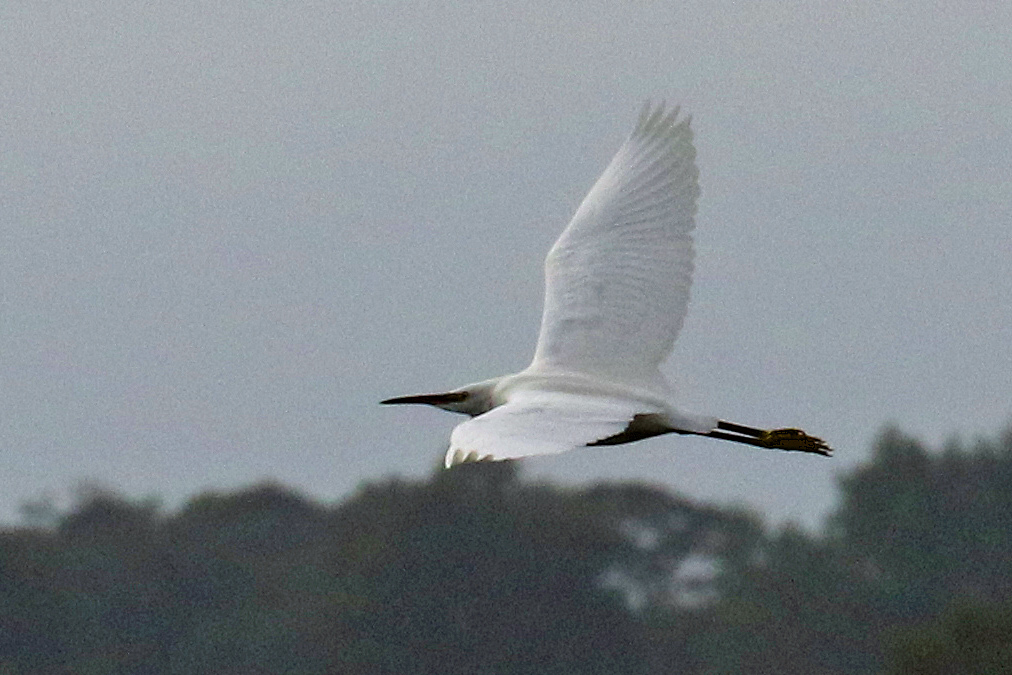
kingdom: Animalia
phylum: Chordata
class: Aves
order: Pelecaniformes
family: Ardeidae
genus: Egretta
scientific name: Egretta garzetta
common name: Little egret
